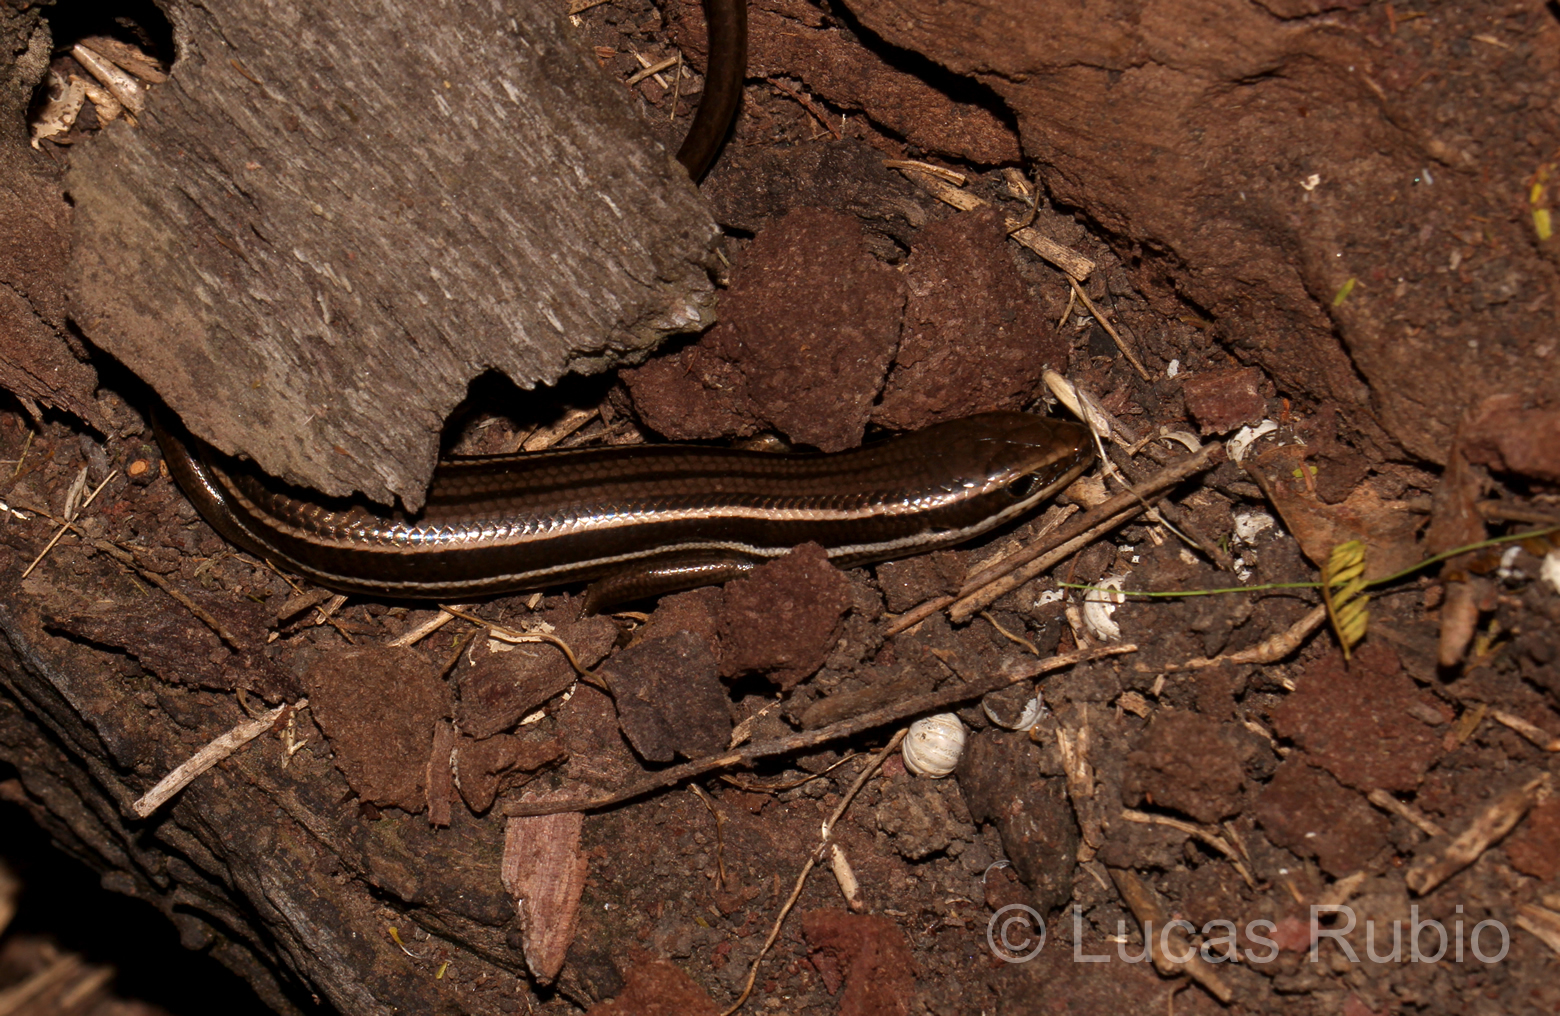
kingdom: Animalia
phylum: Chordata
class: Squamata
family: Scincidae
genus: Aspronema
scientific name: Aspronema dorsivittatum
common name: Paraguay mabuya
